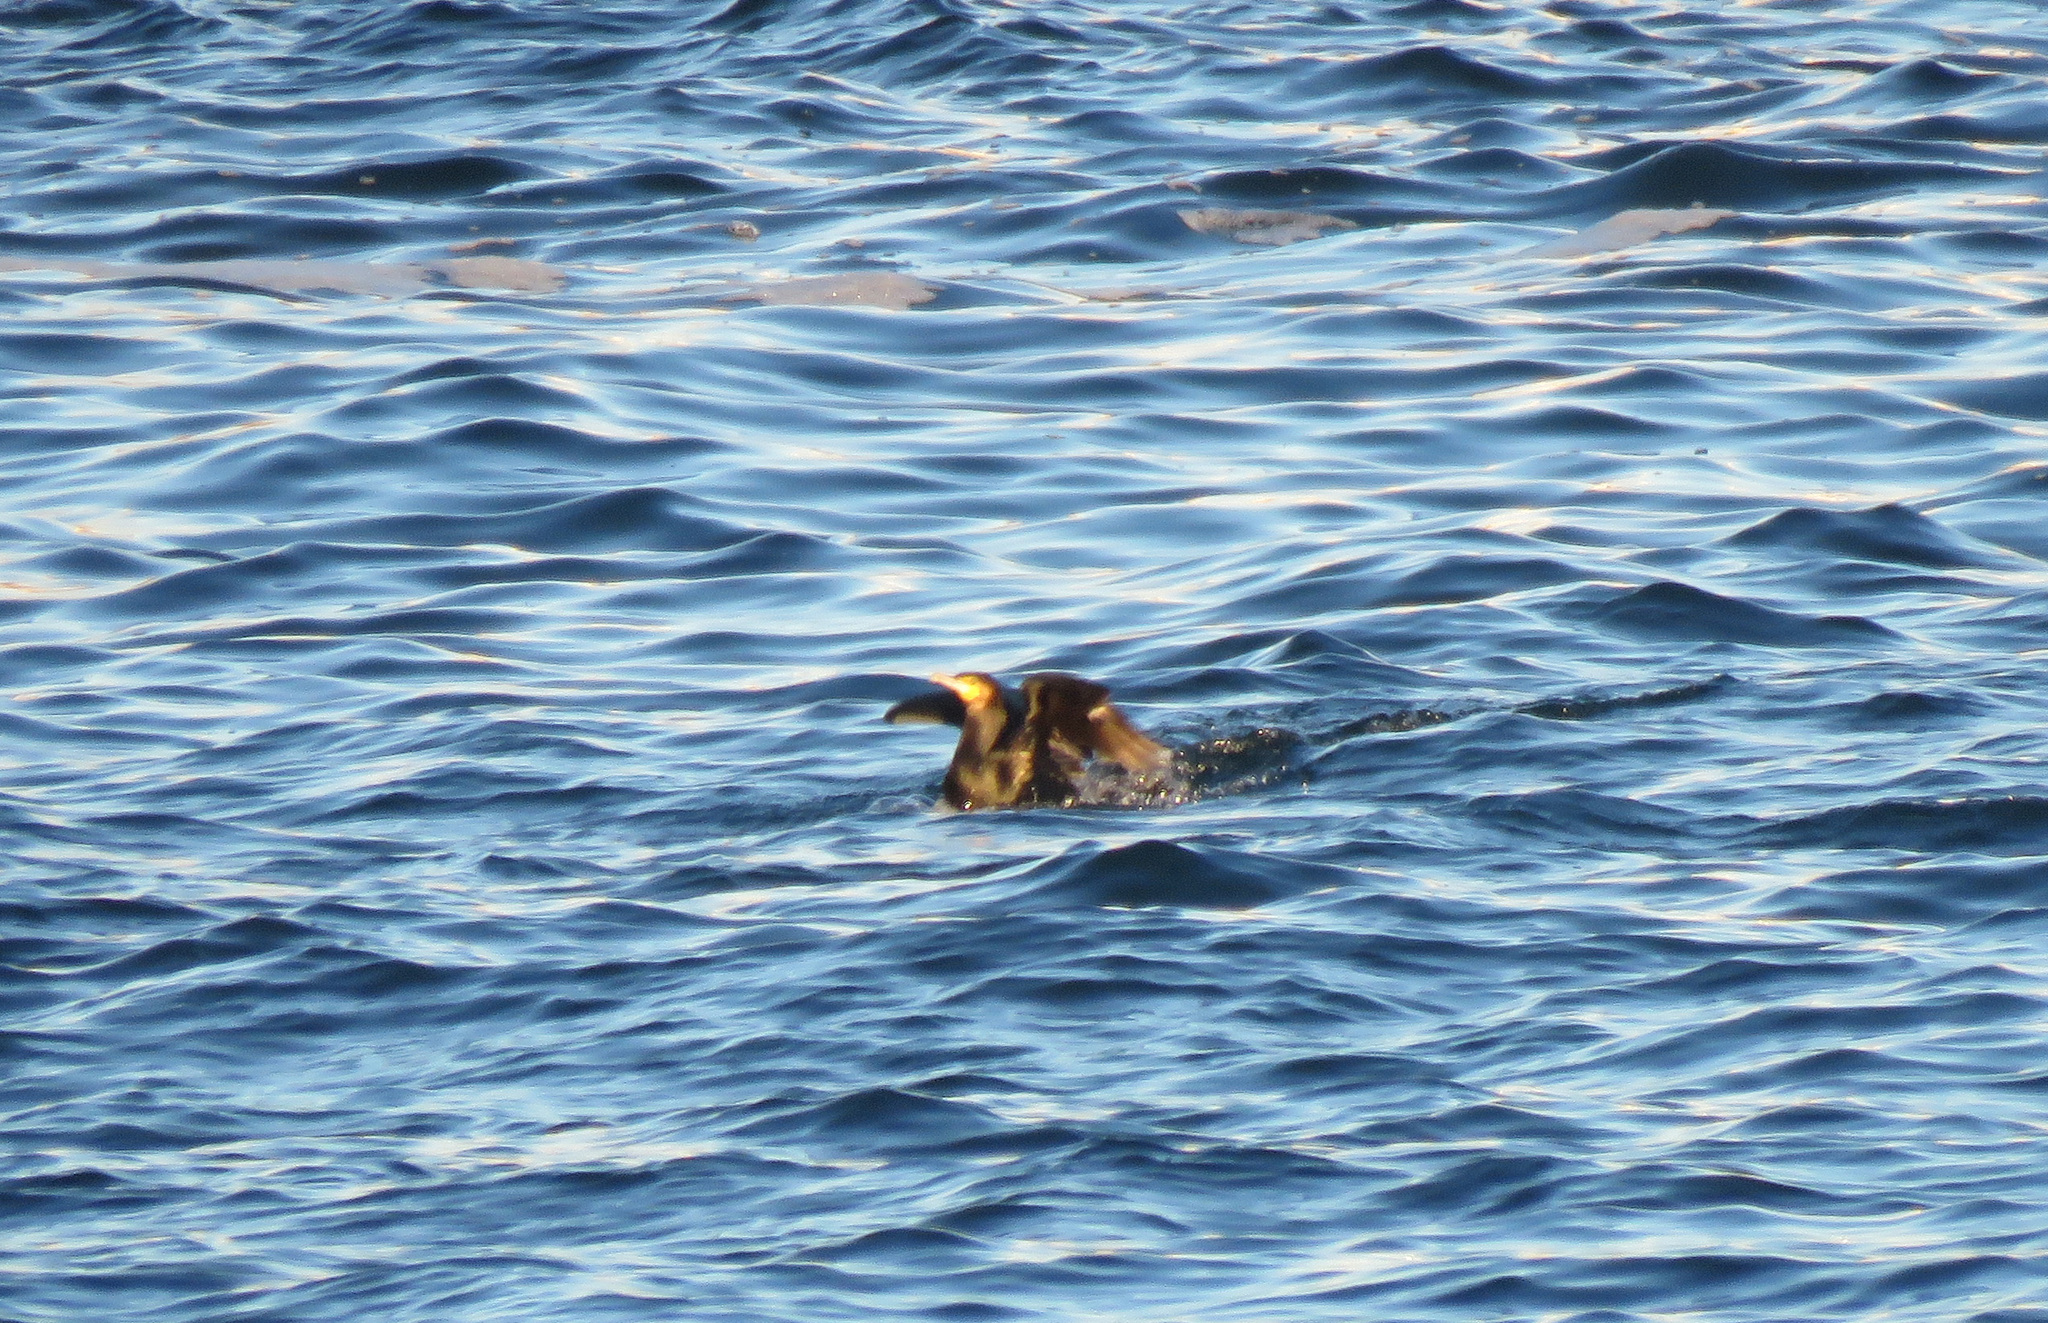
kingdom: Animalia
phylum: Chordata
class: Aves
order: Suliformes
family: Phalacrocoracidae
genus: Phalacrocorax
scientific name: Phalacrocorax carbo
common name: Great cormorant
